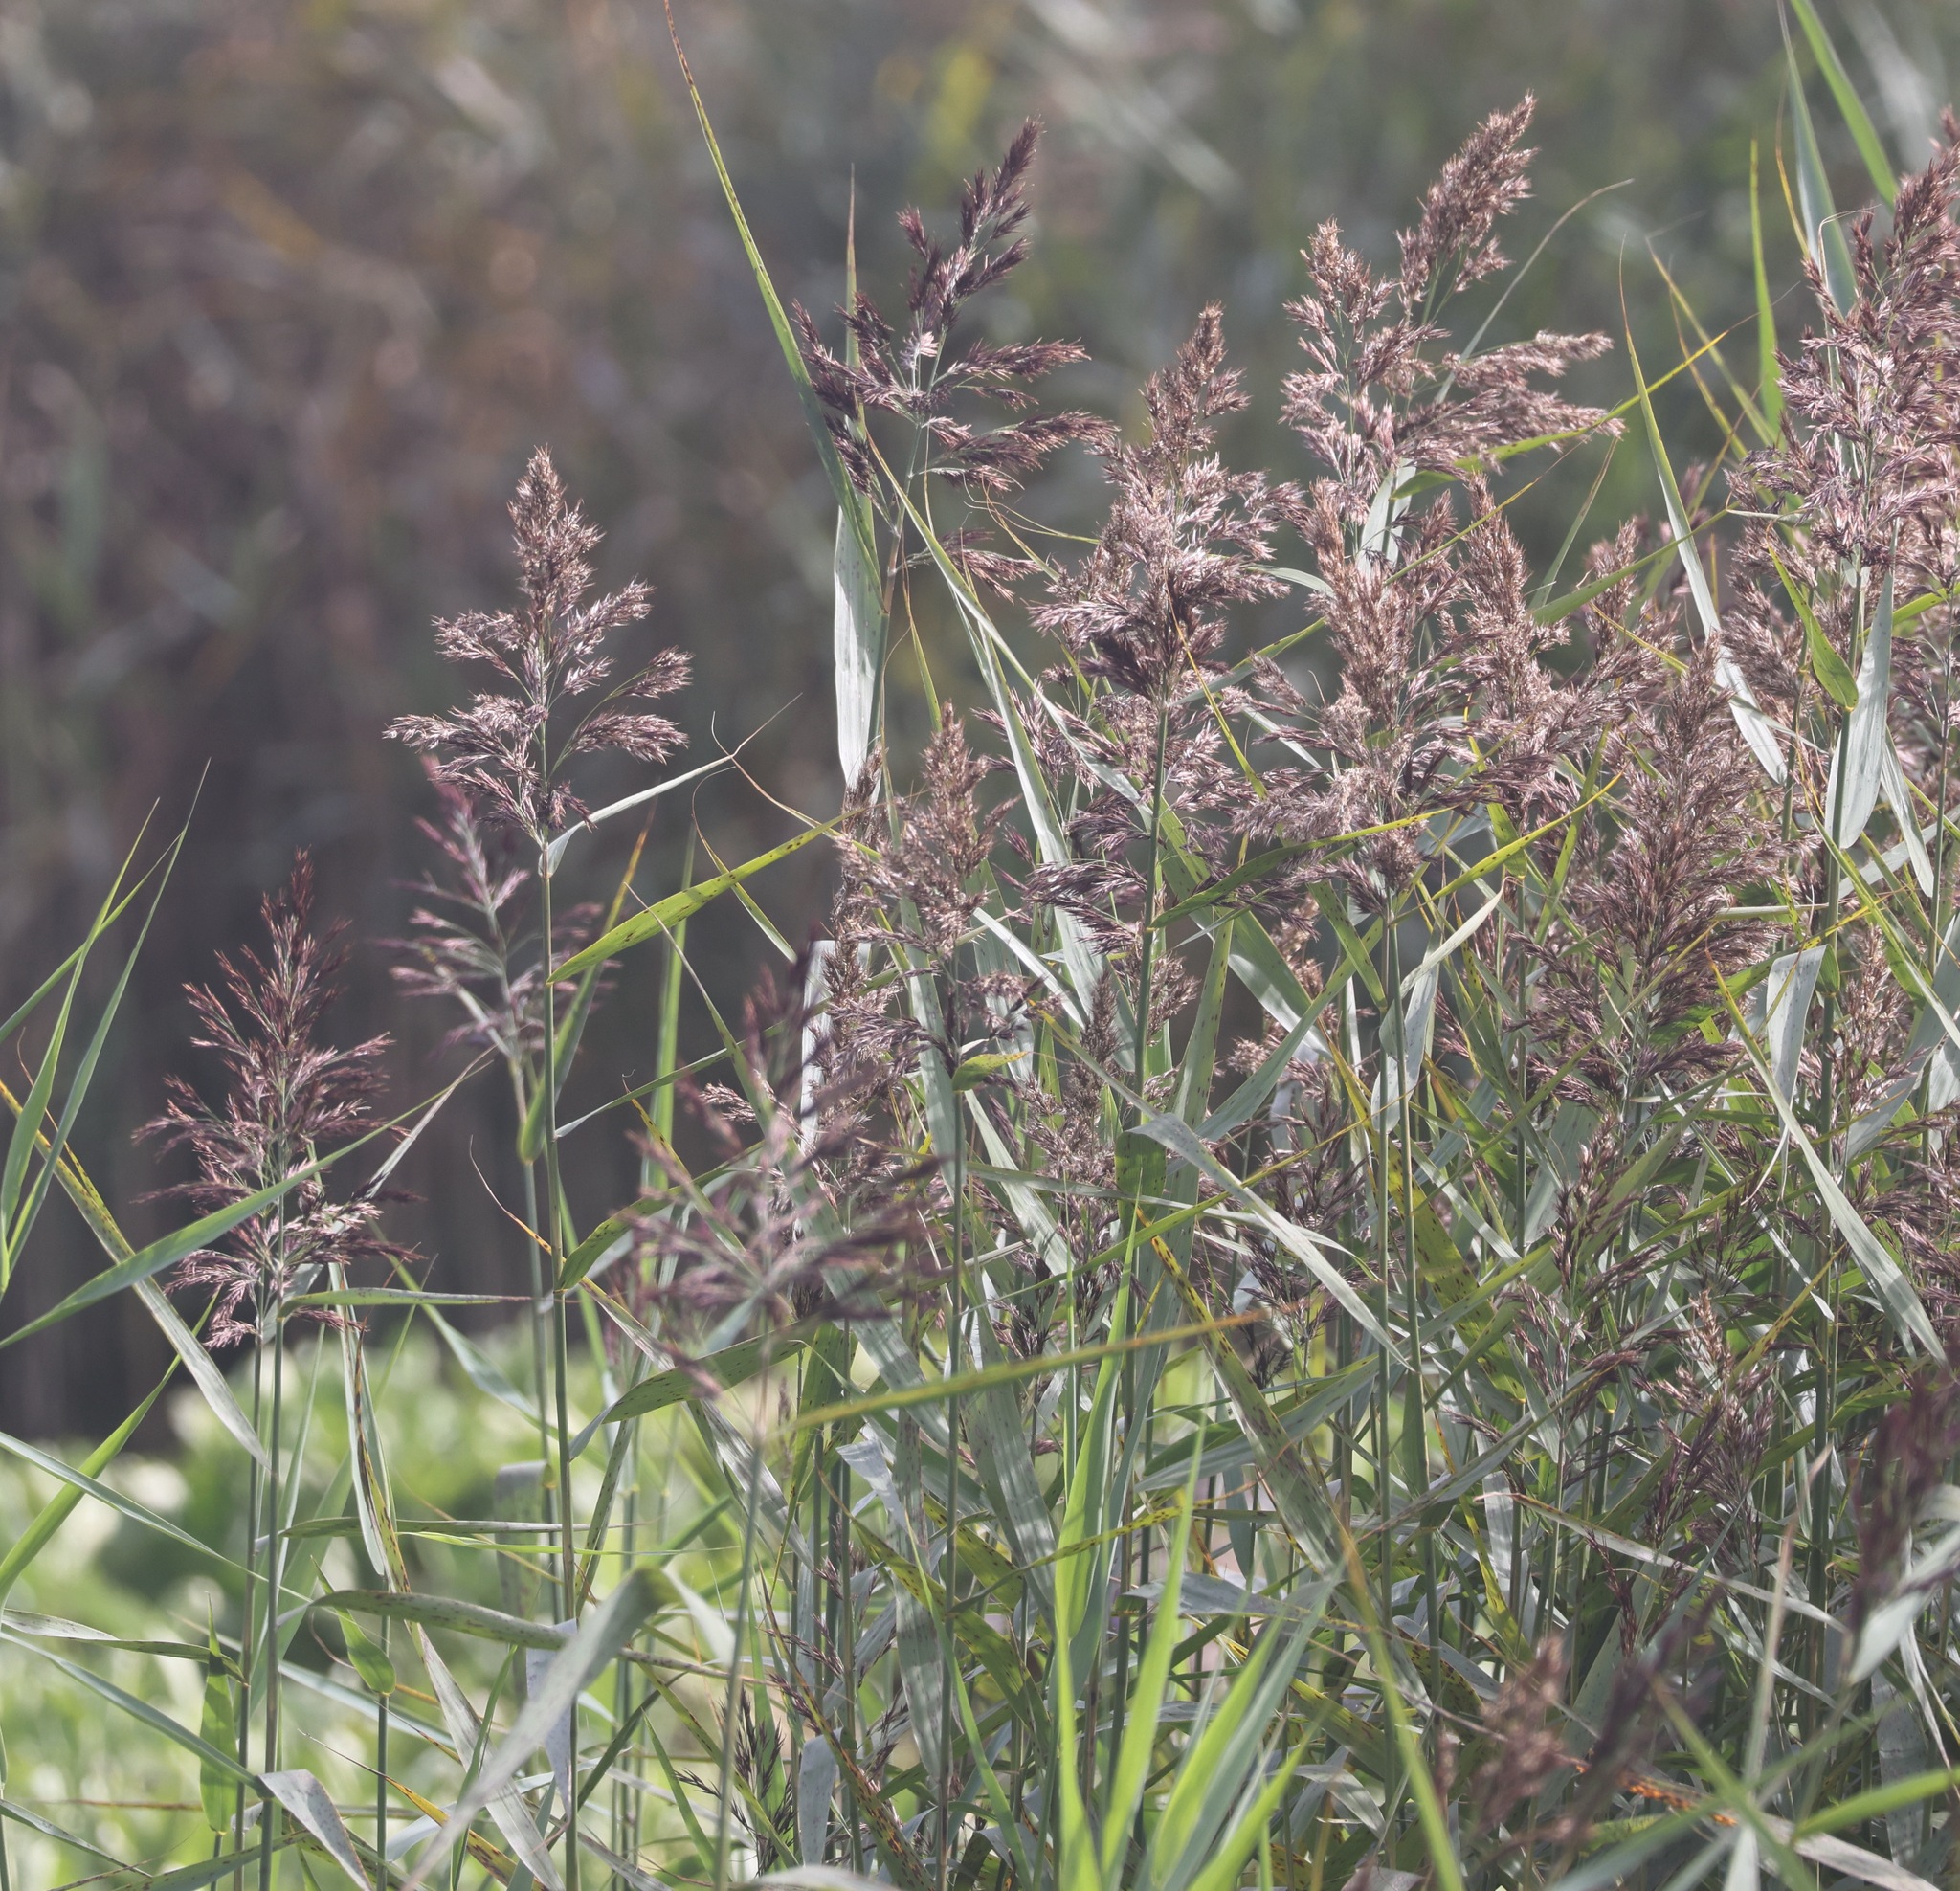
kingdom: Plantae
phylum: Tracheophyta
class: Liliopsida
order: Poales
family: Poaceae
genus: Phragmites
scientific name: Phragmites australis
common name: Common reed
